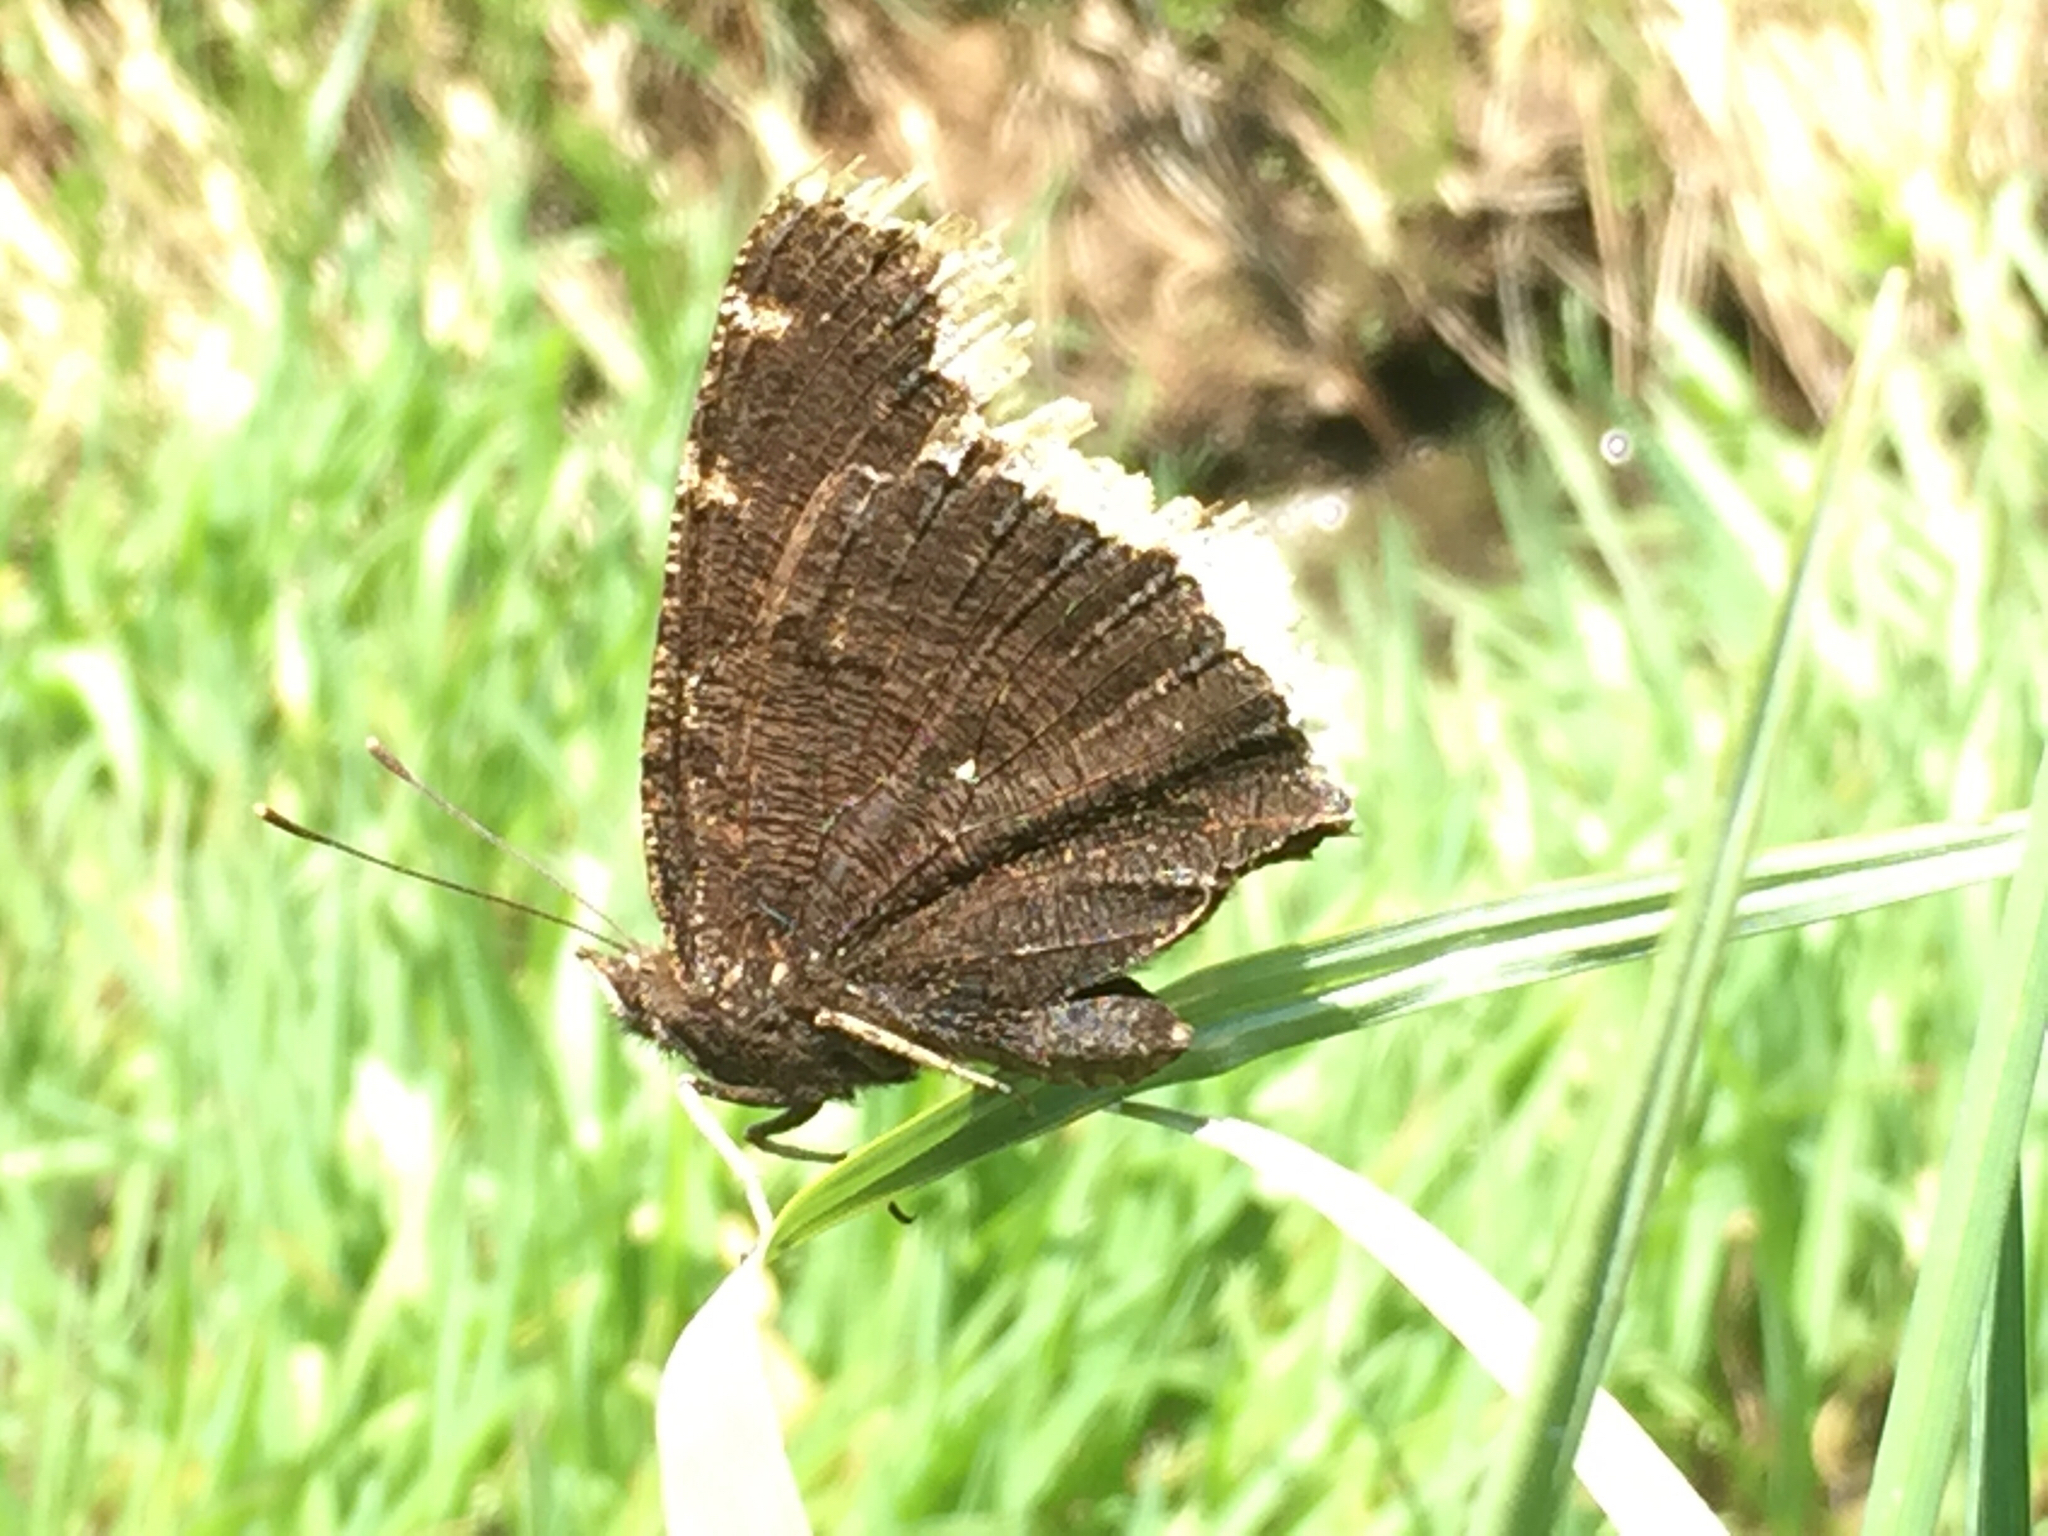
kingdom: Animalia
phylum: Arthropoda
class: Insecta
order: Lepidoptera
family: Nymphalidae
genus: Nymphalis
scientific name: Nymphalis antiopa
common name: Camberwell beauty
